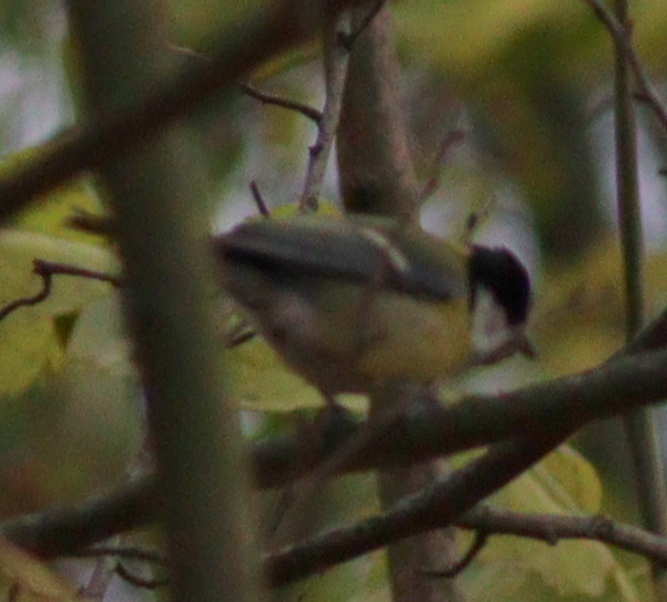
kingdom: Animalia
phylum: Chordata
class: Aves
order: Passeriformes
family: Paridae
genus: Parus
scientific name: Parus major
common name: Great tit
